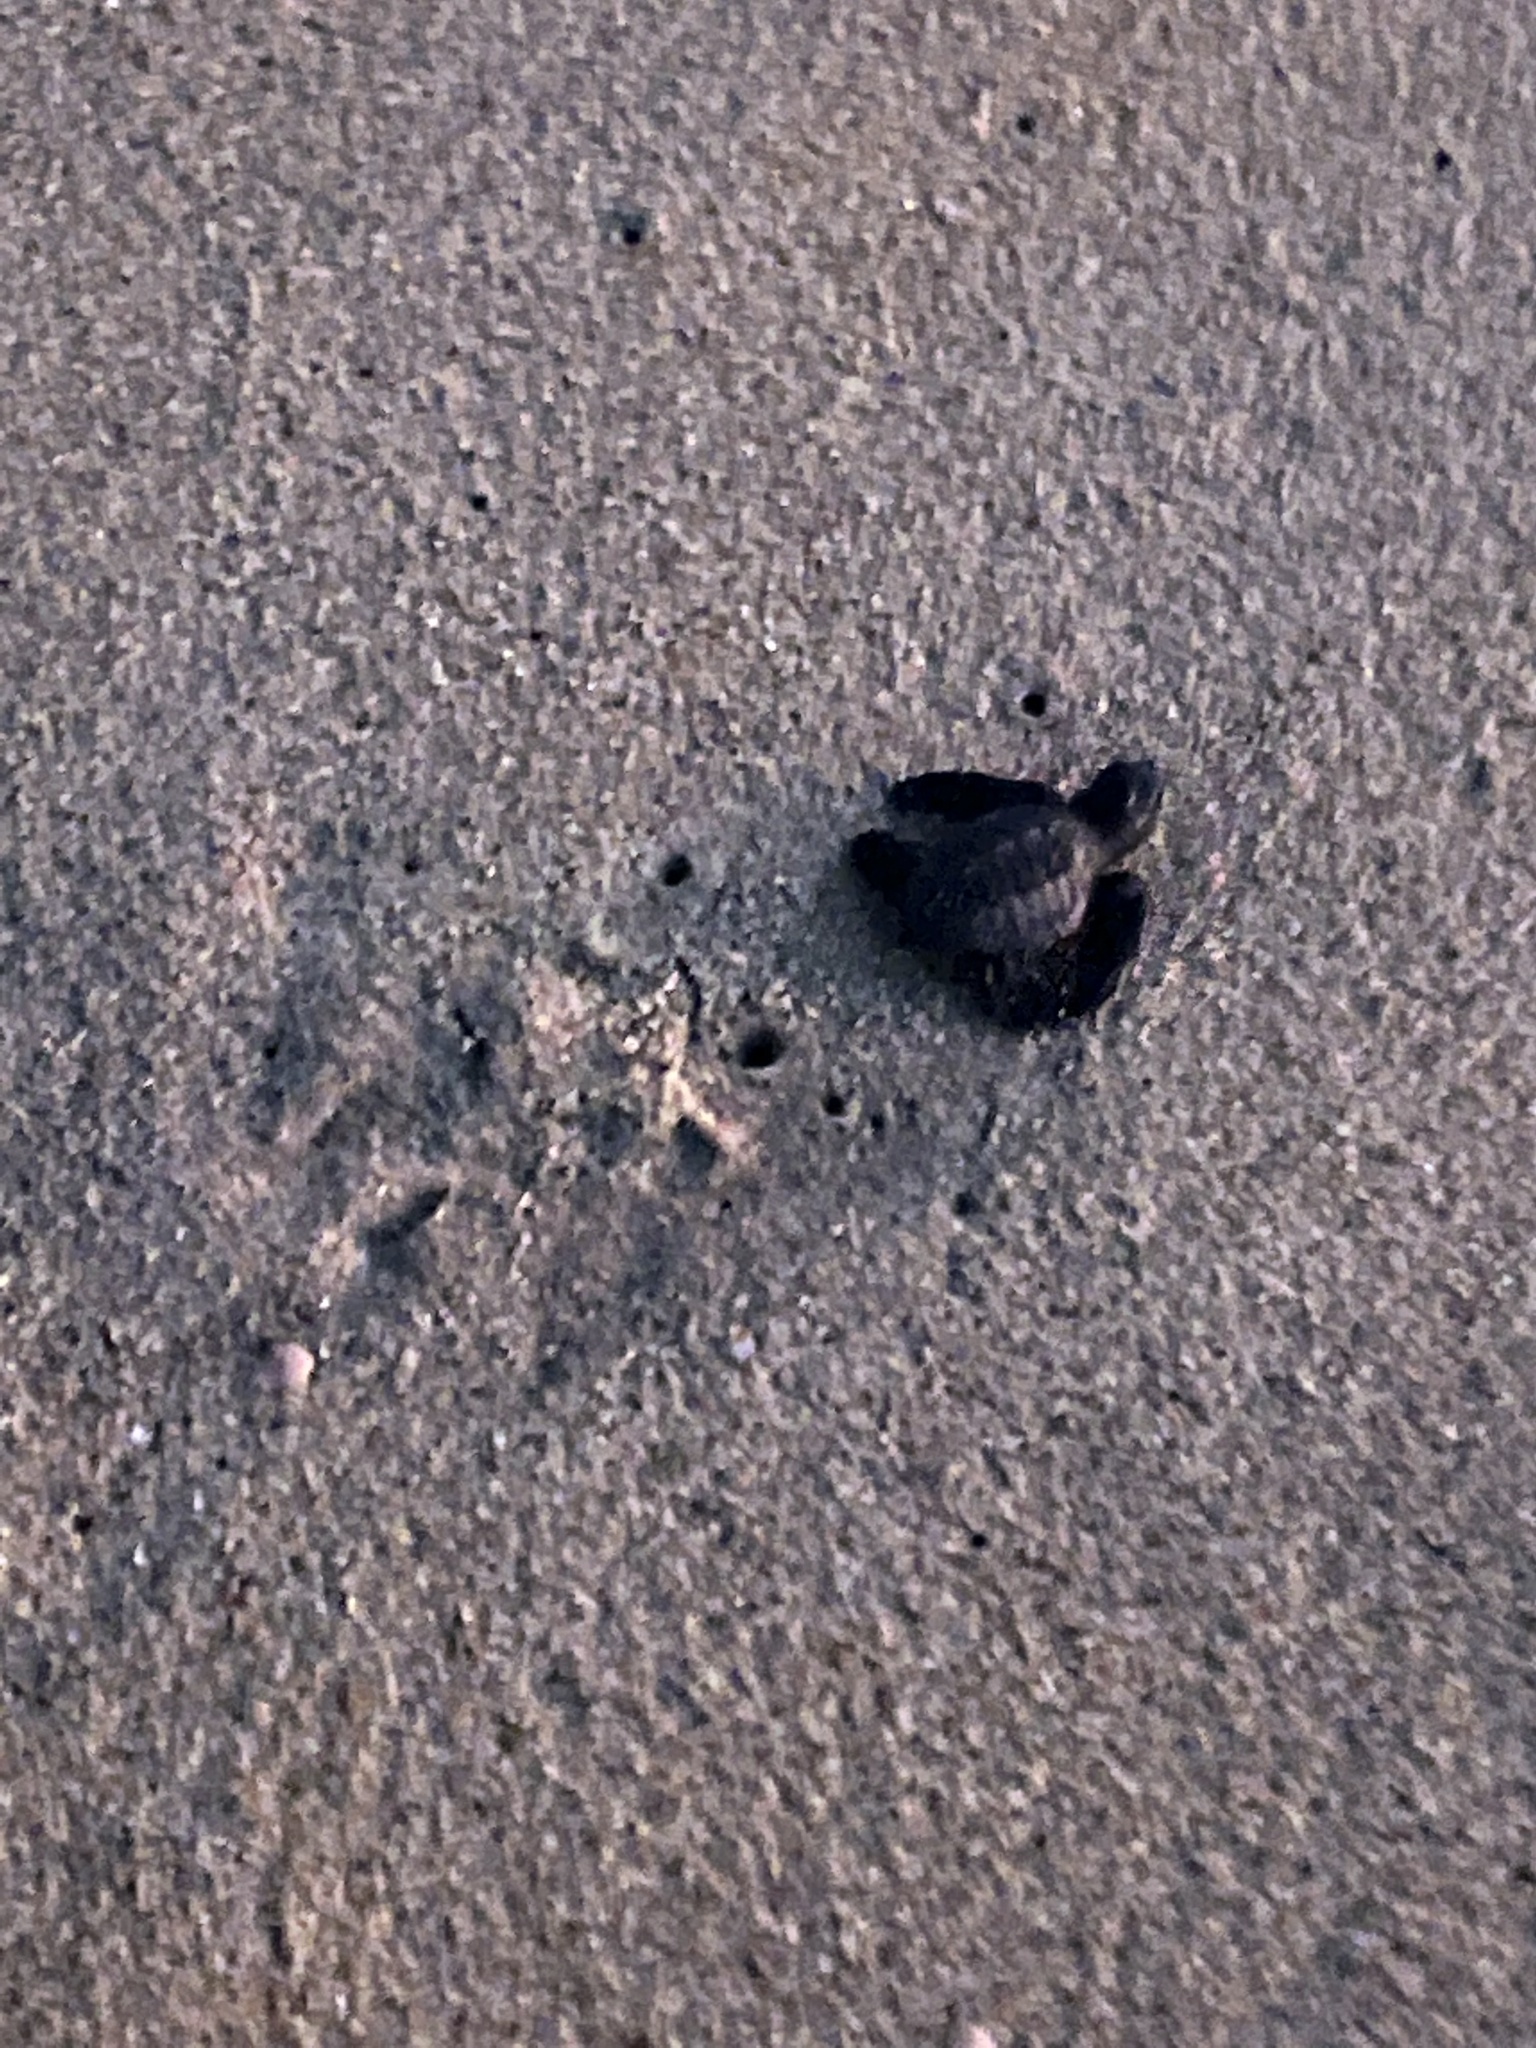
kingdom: Animalia
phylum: Chordata
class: Testudines
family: Cheloniidae
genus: Lepidochelys
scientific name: Lepidochelys olivacea
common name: Olive ridley
